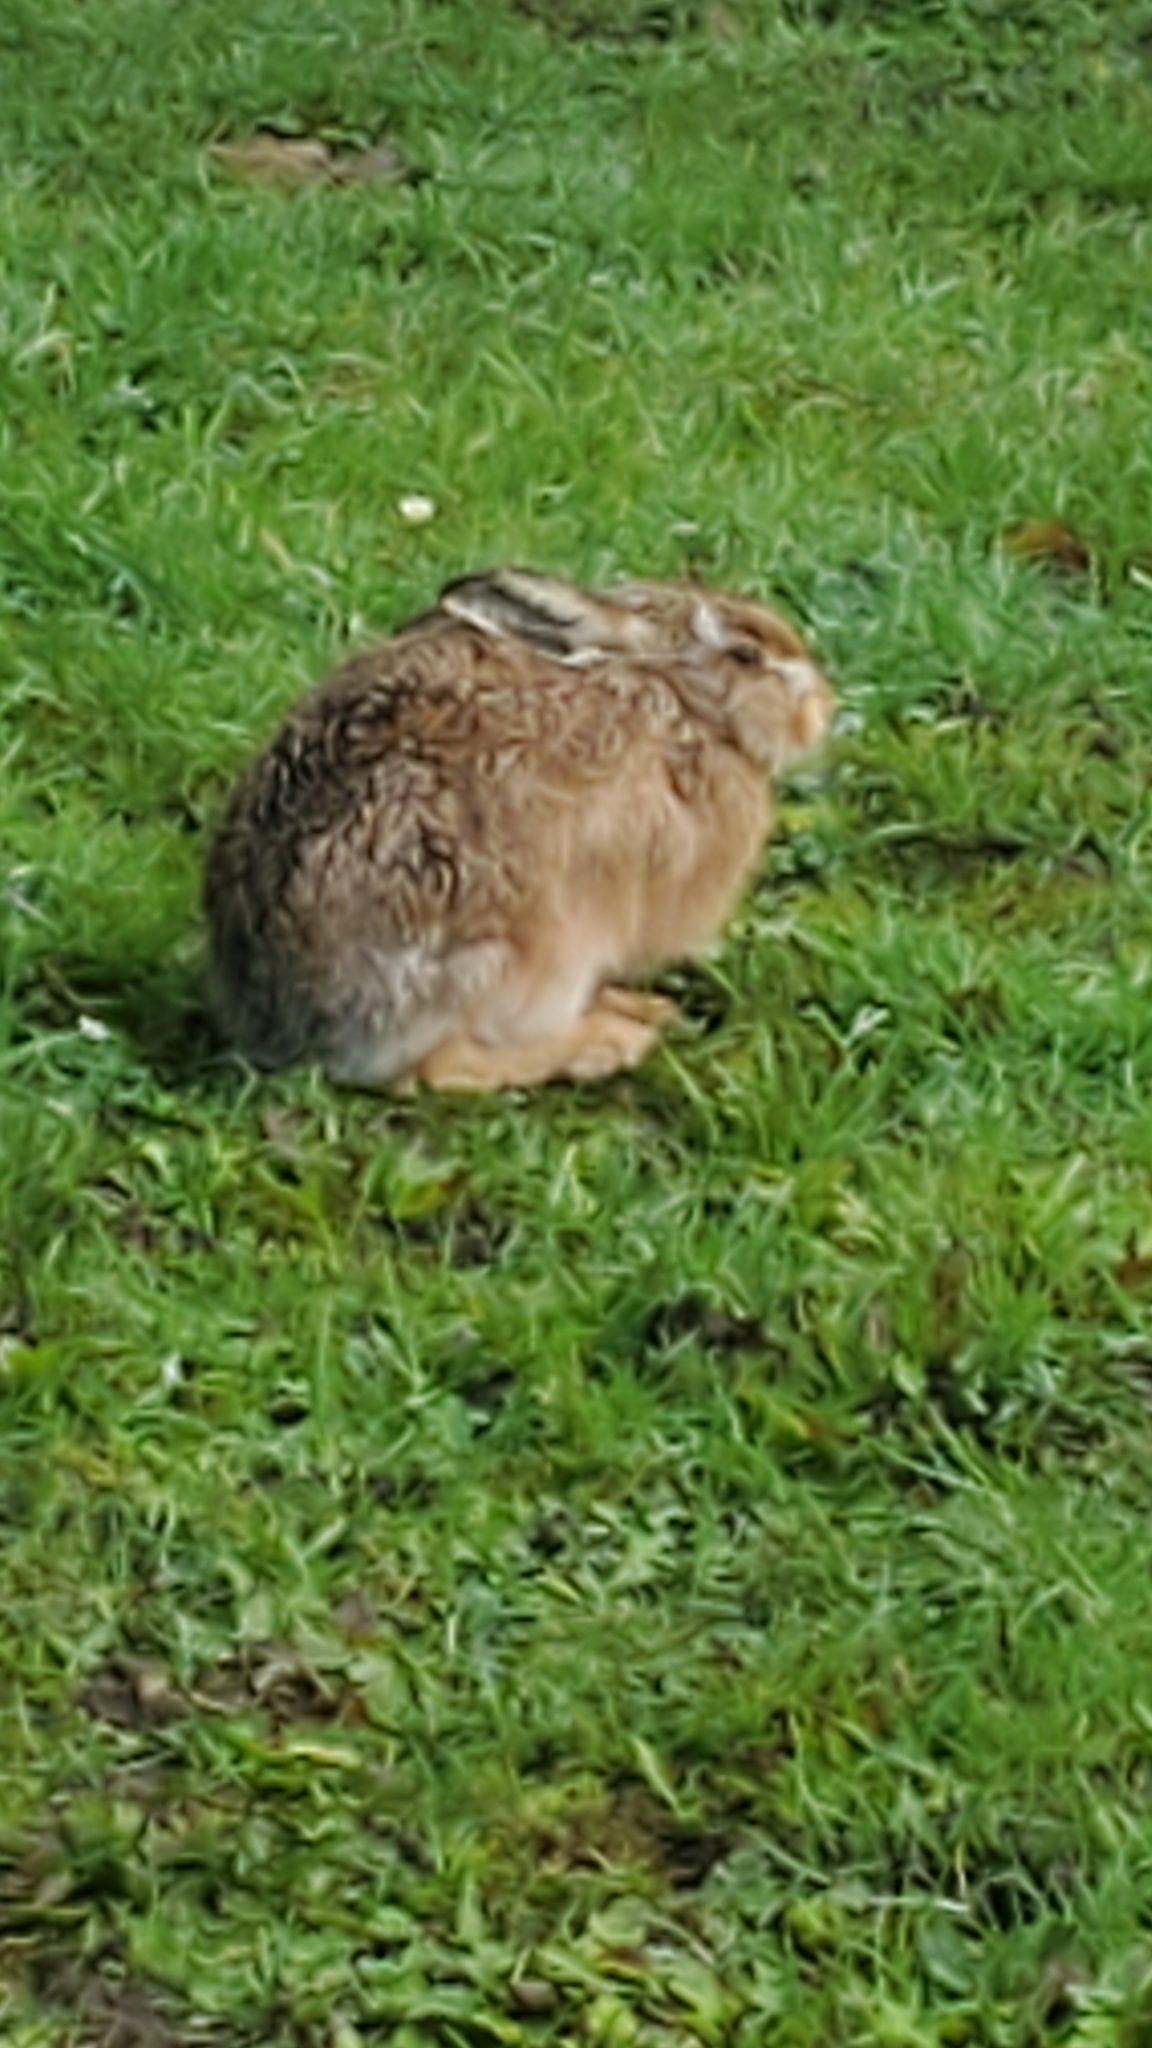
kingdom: Animalia
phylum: Chordata
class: Mammalia
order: Lagomorpha
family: Leporidae
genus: Lepus
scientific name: Lepus europaeus
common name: European hare
